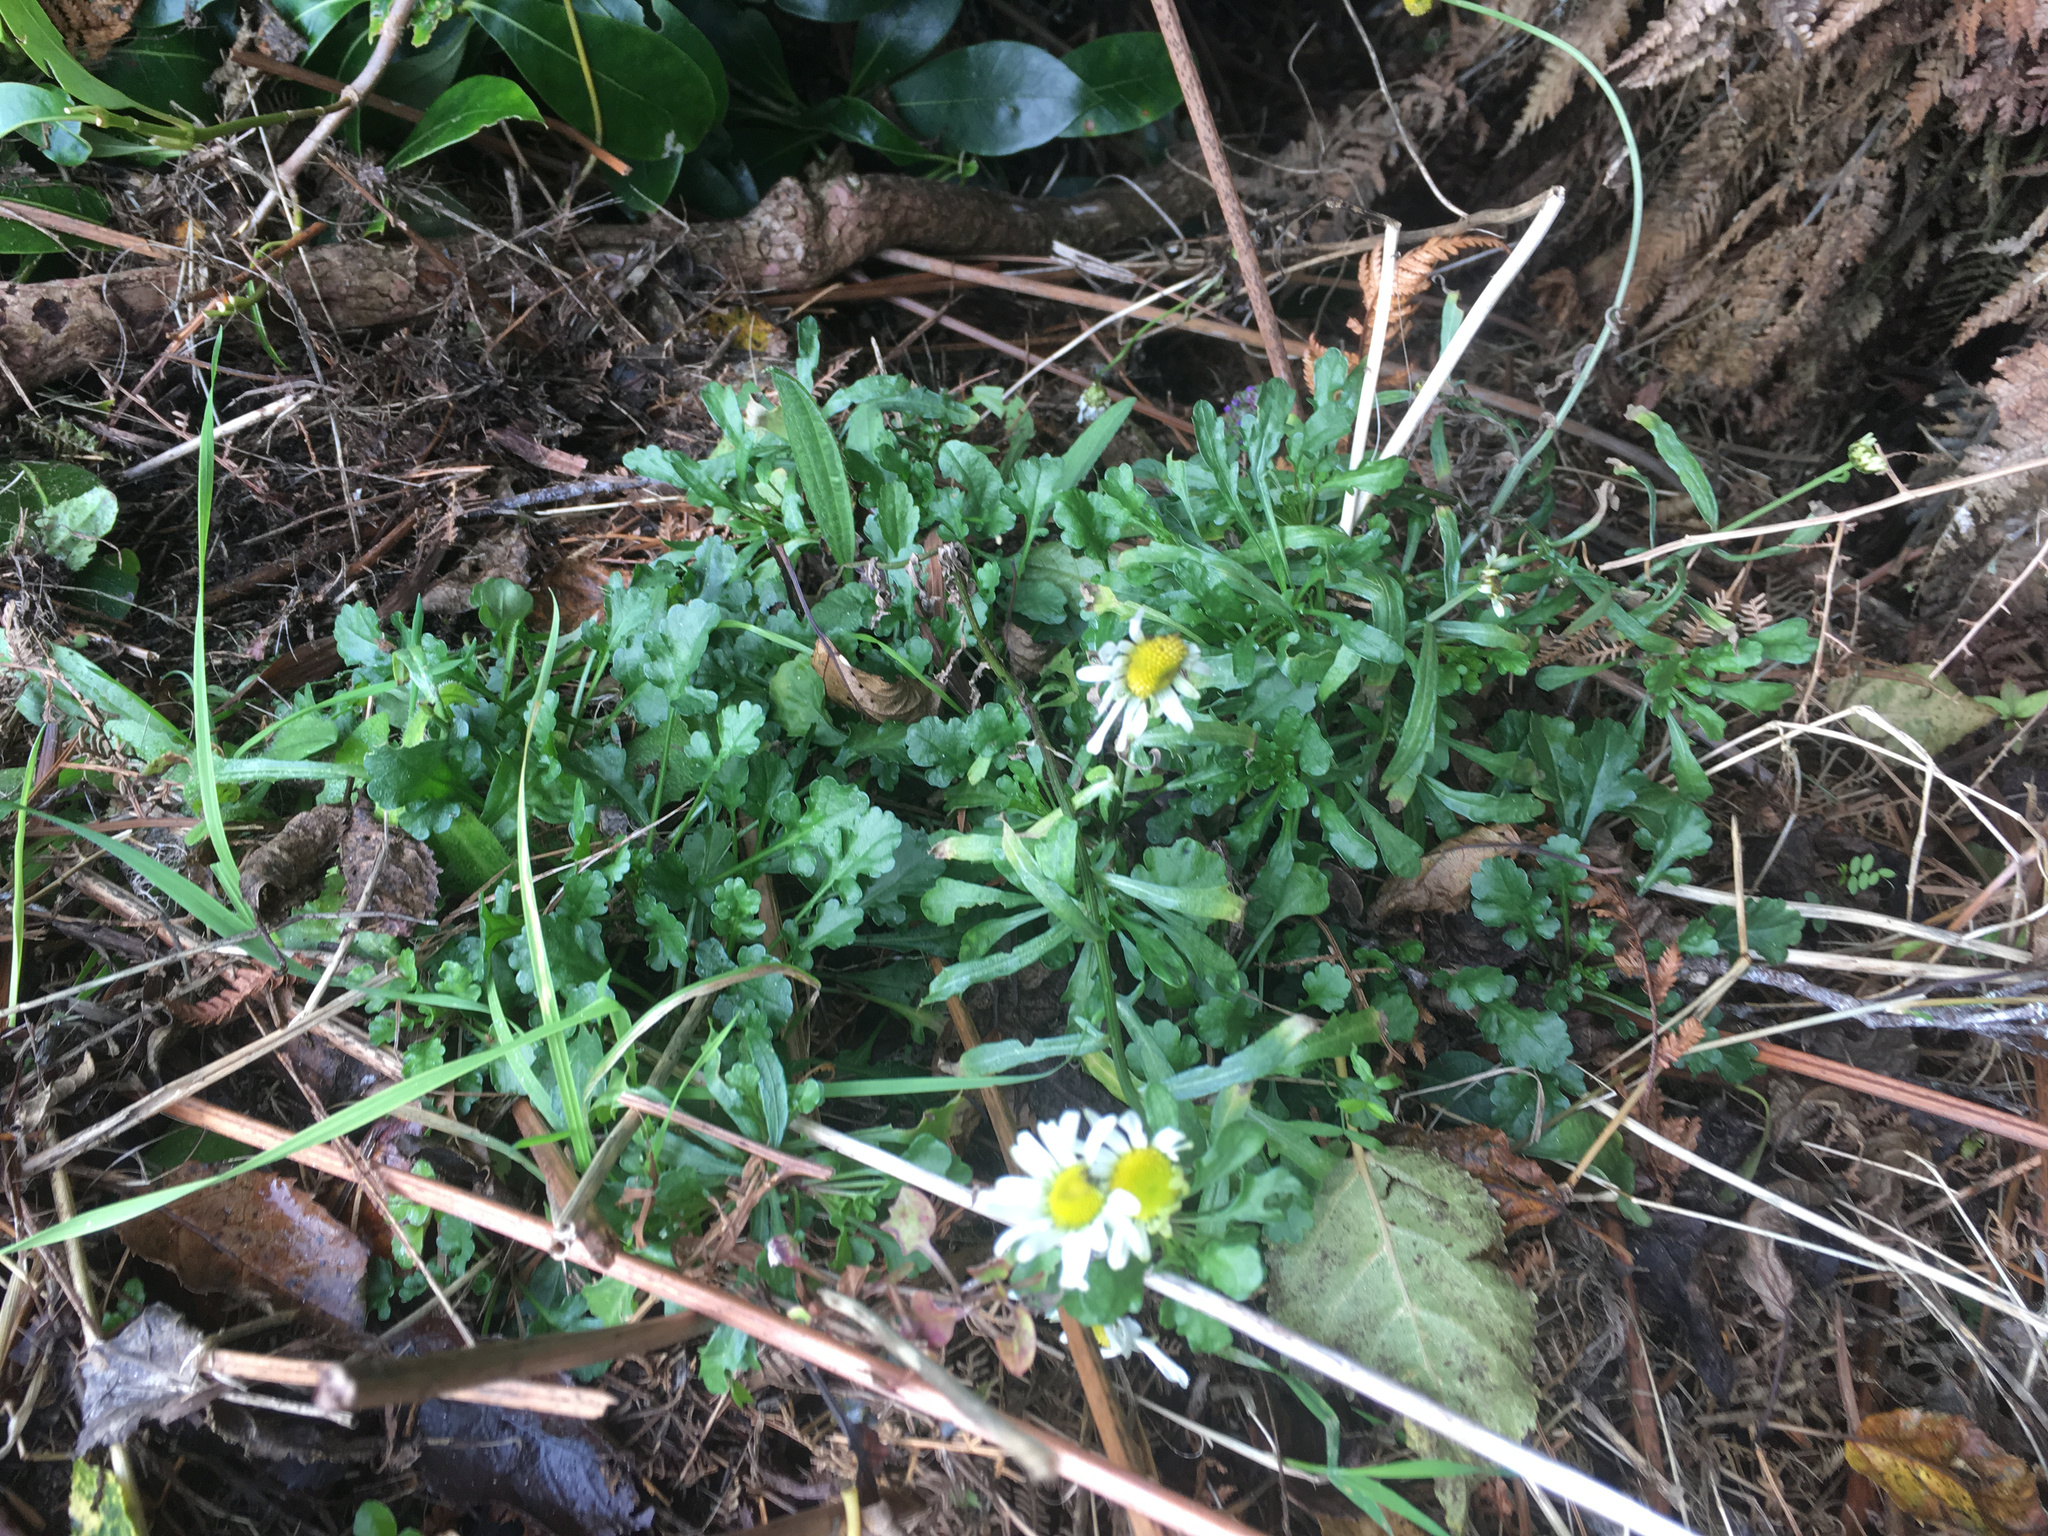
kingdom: Plantae
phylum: Tracheophyta
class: Magnoliopsida
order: Asterales
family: Asteraceae
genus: Leucanthemum
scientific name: Leucanthemum vulgare
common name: Oxeye daisy
